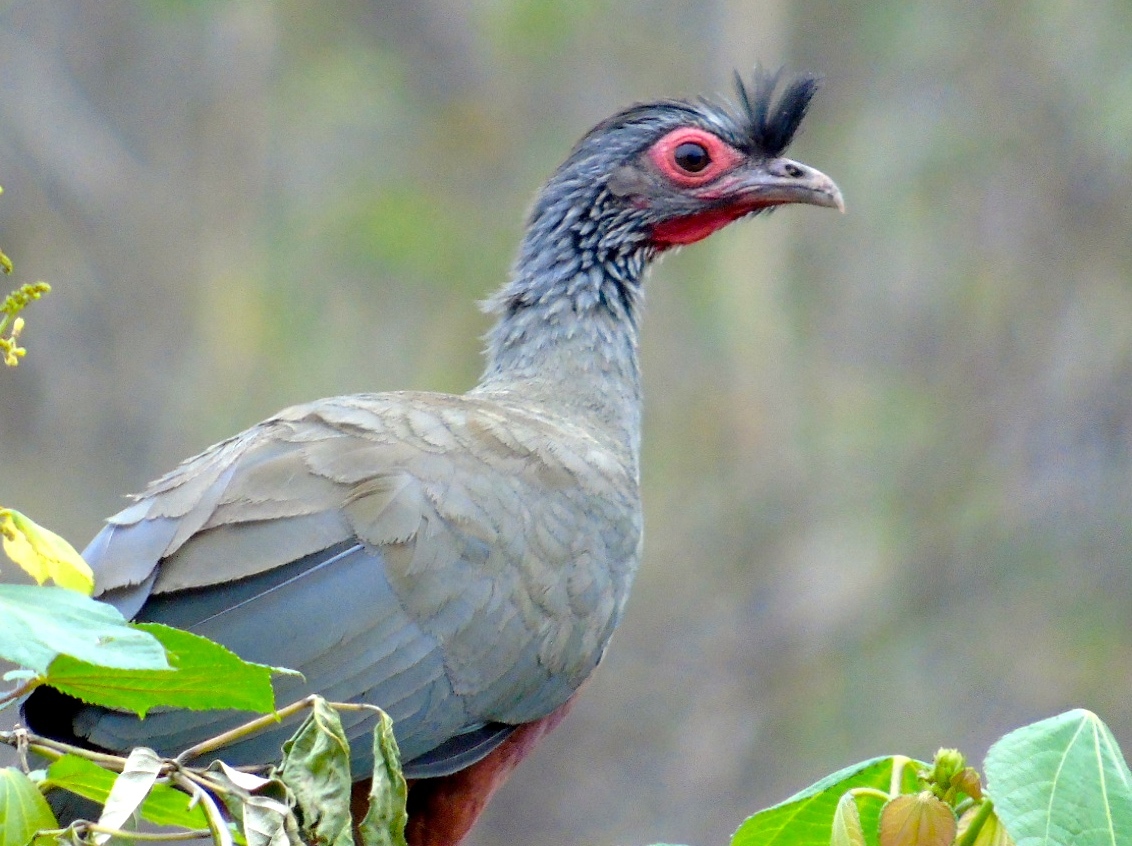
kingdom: Animalia
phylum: Chordata
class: Aves
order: Galliformes
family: Cracidae
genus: Ortalis
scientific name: Ortalis wagleri
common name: Rufous-bellied chachalaca
